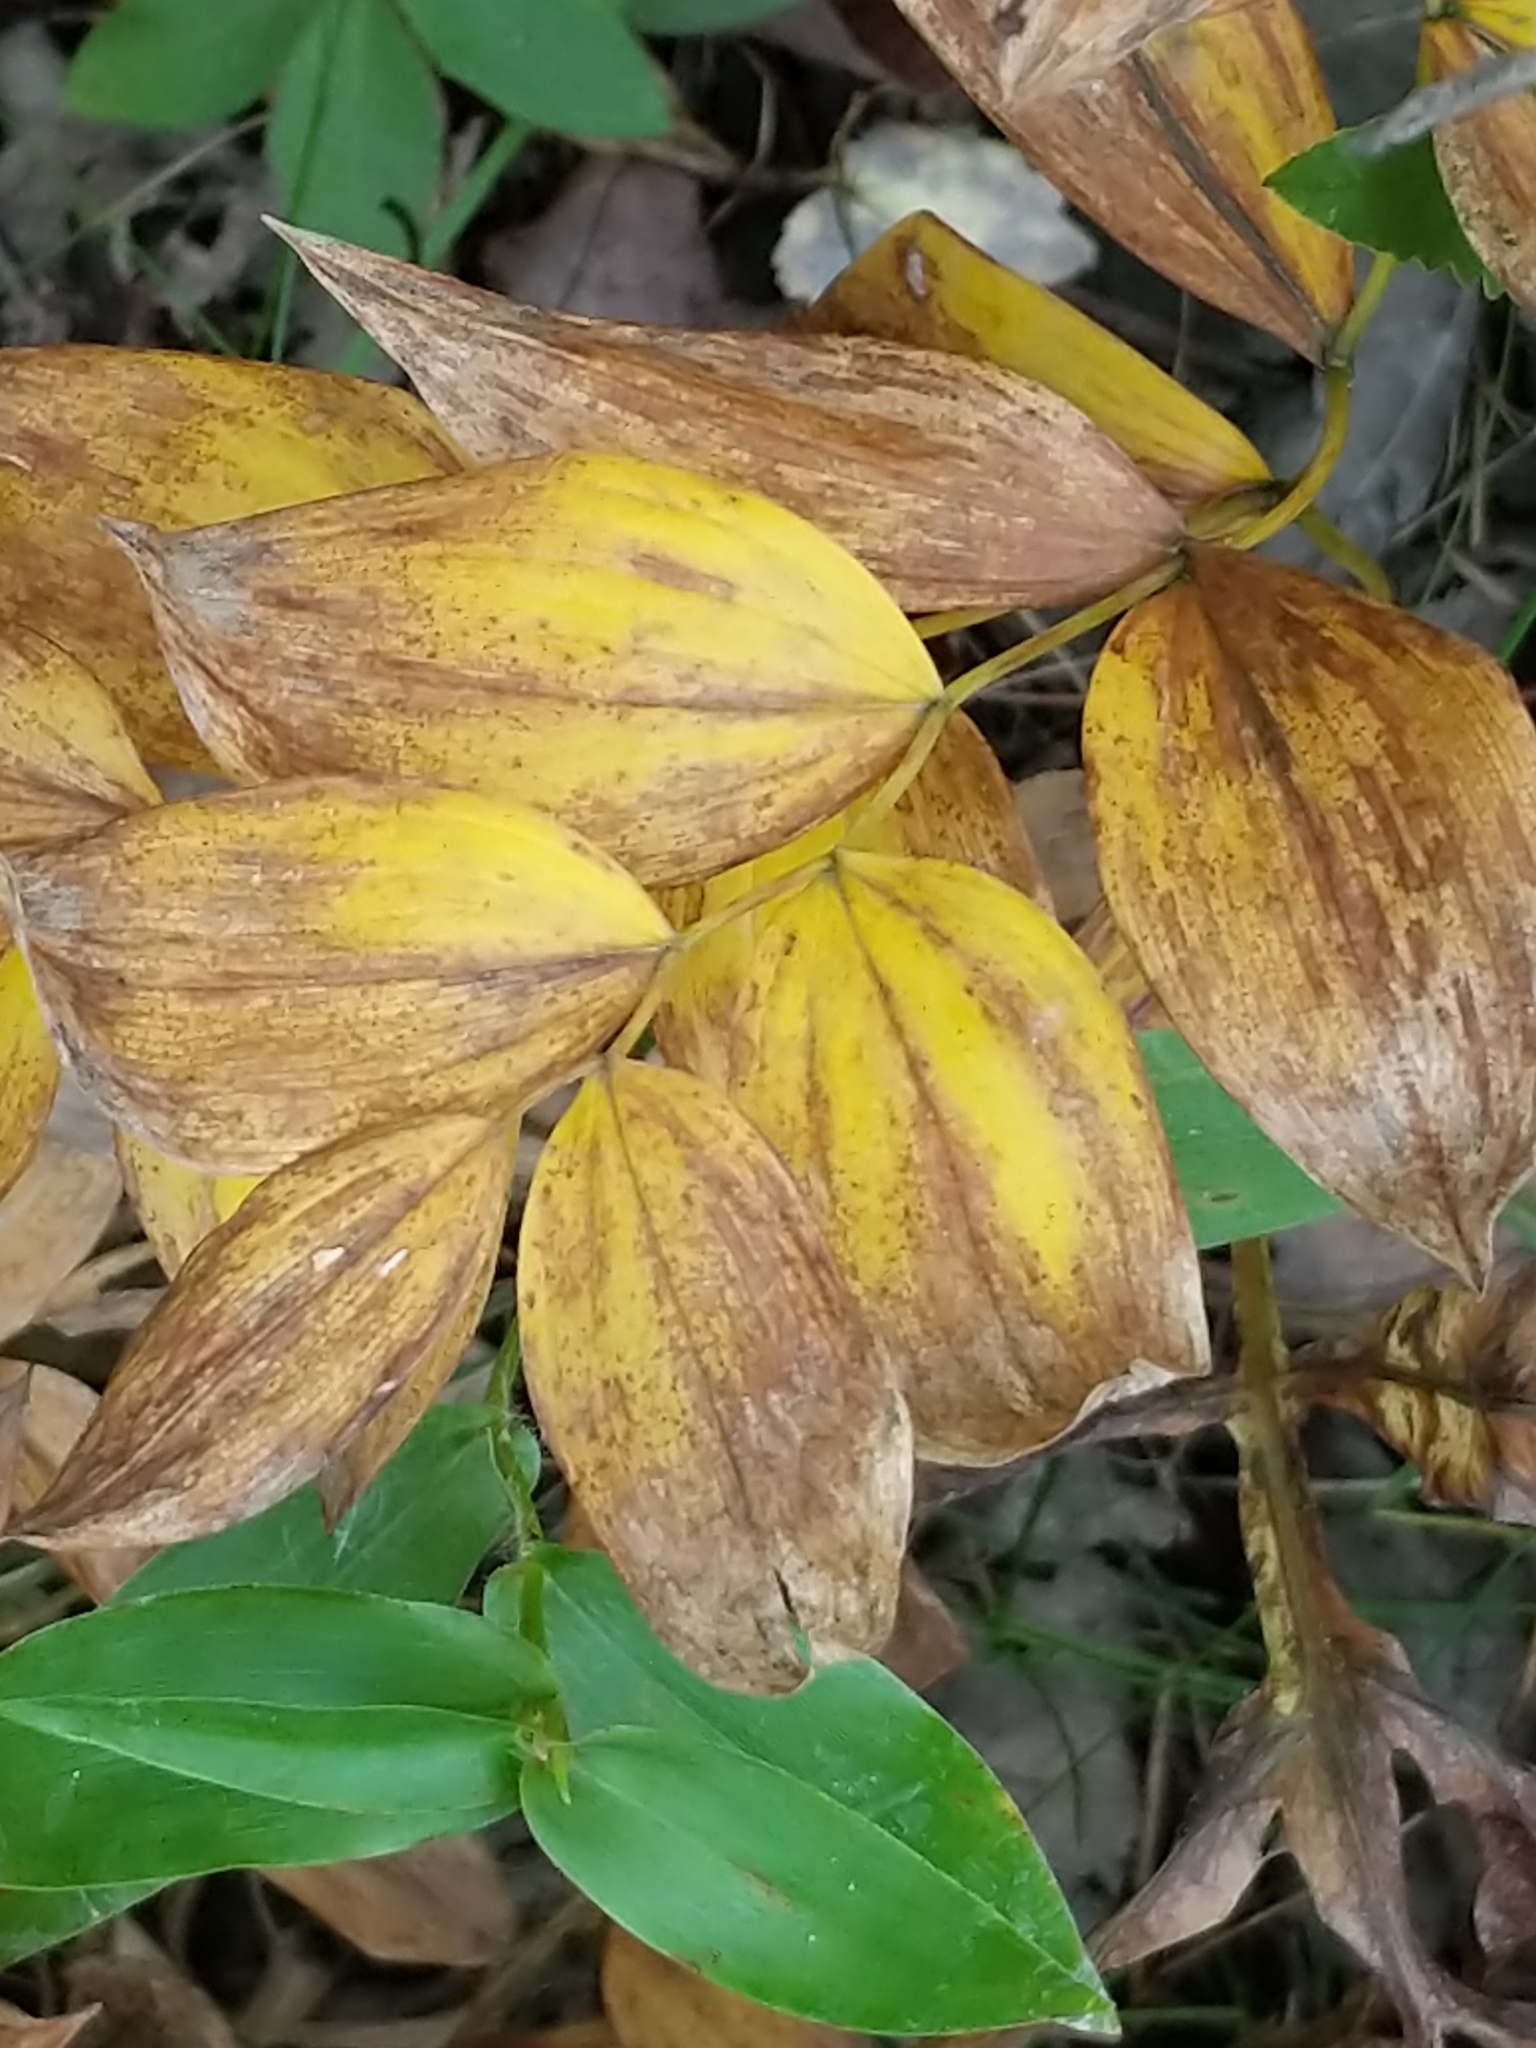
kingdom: Plantae
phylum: Tracheophyta
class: Liliopsida
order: Liliales
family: Colchicaceae
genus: Uvularia
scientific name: Uvularia sessilifolia
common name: Straw-lily
